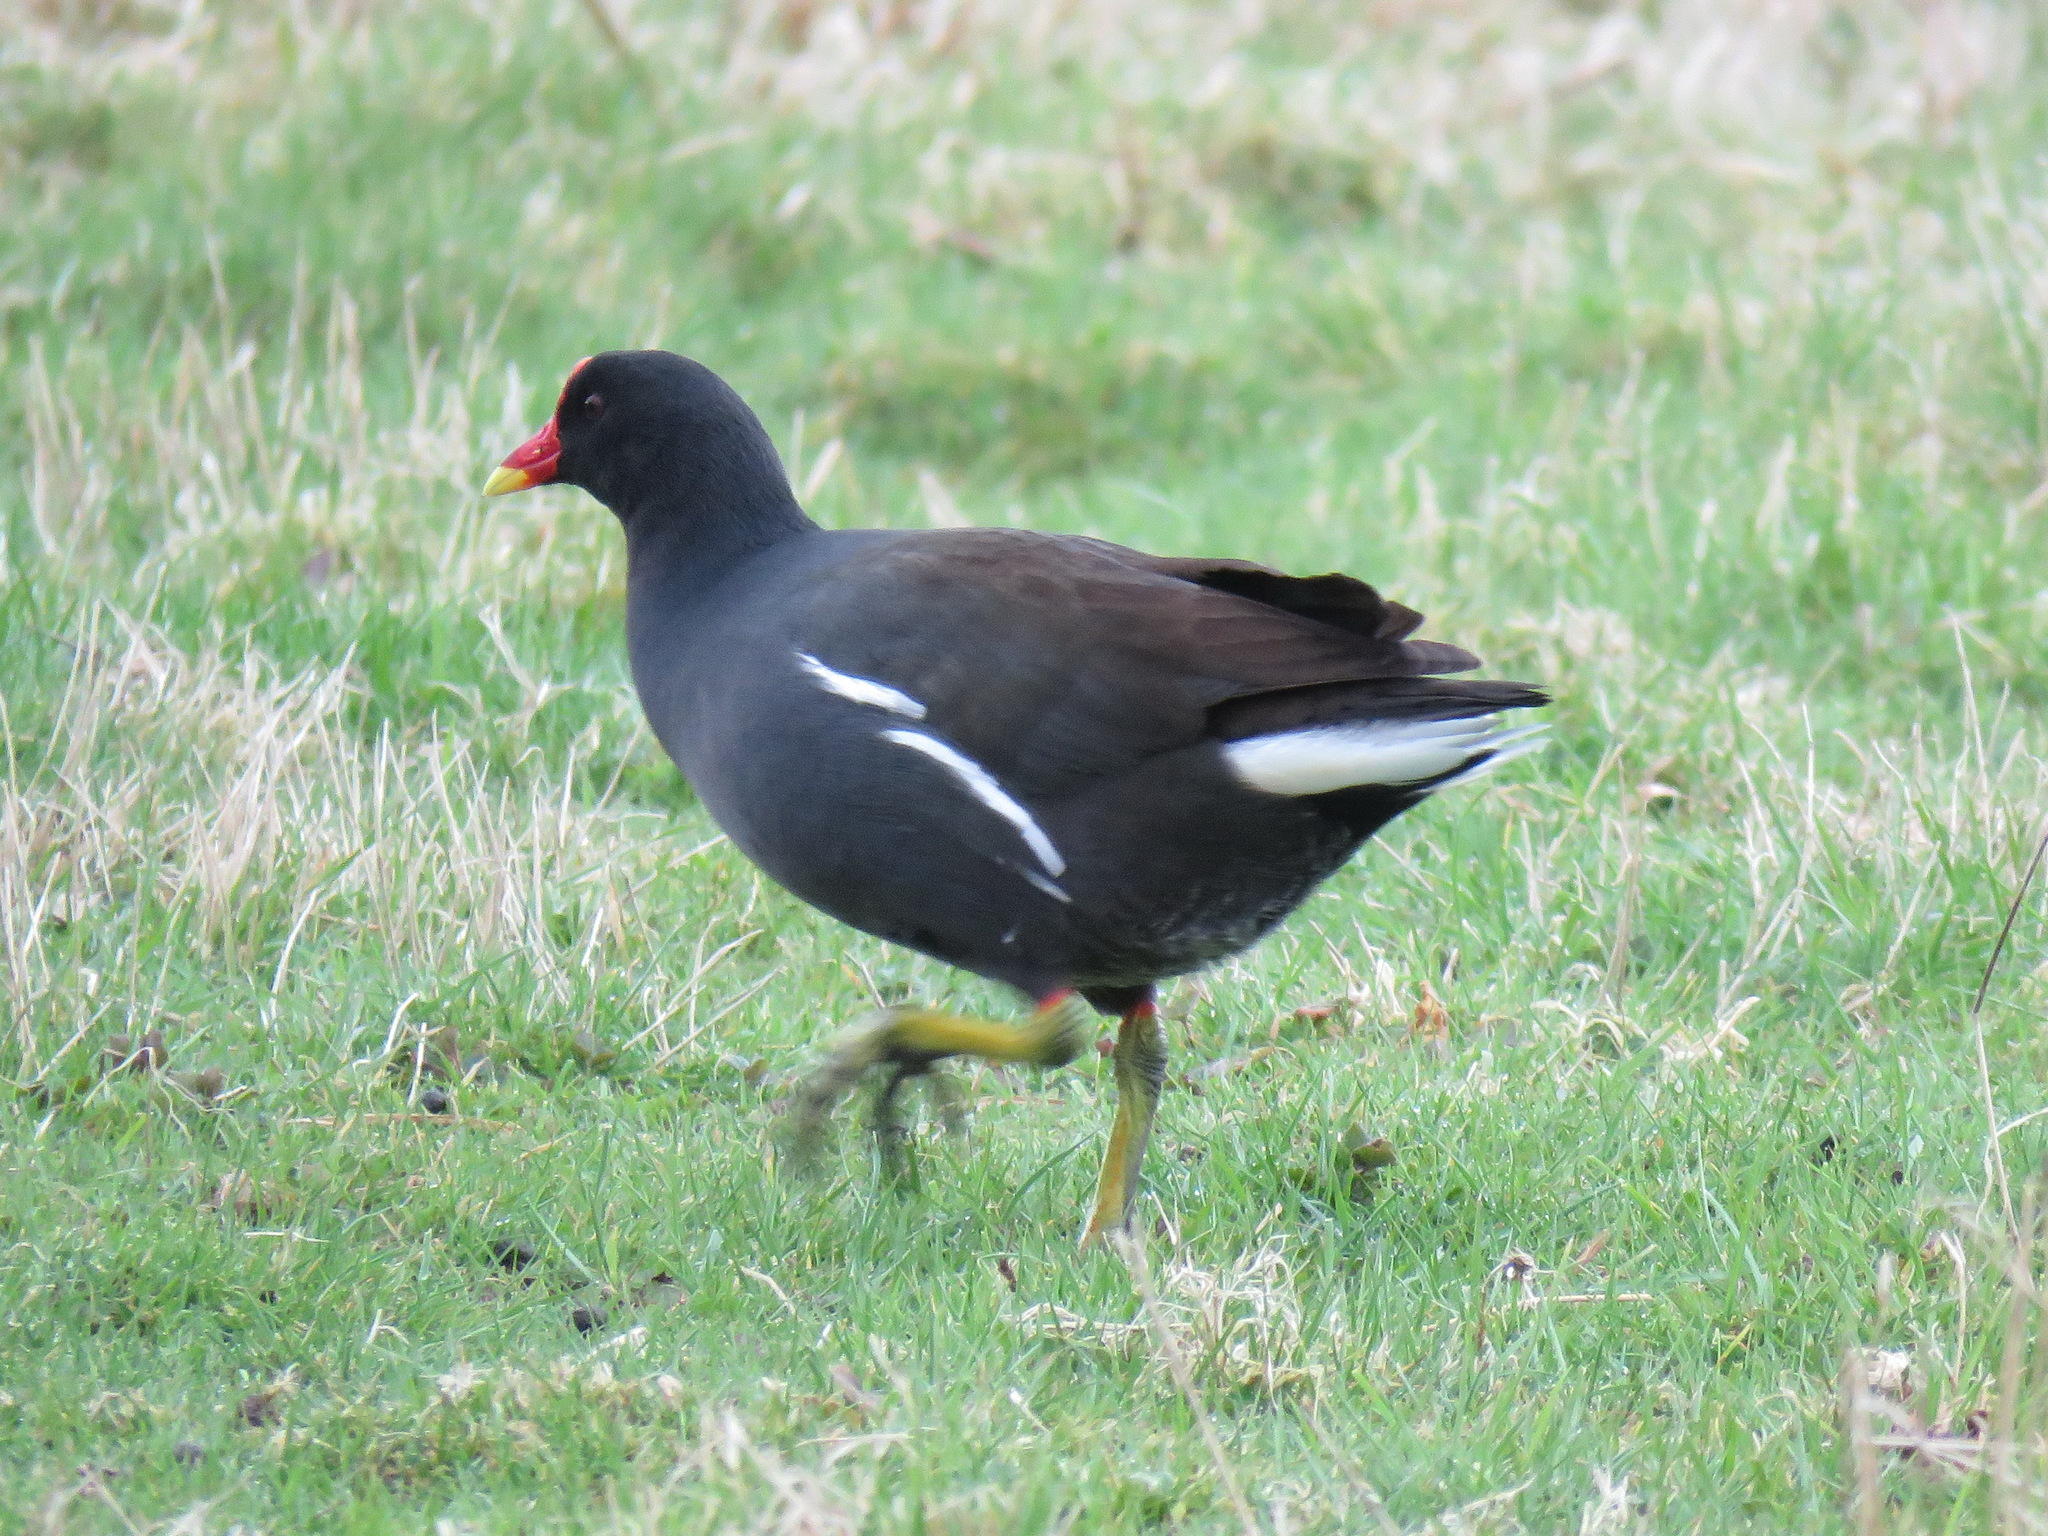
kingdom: Animalia
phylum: Chordata
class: Aves
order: Gruiformes
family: Rallidae
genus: Gallinula
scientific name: Gallinula chloropus
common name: Common moorhen
